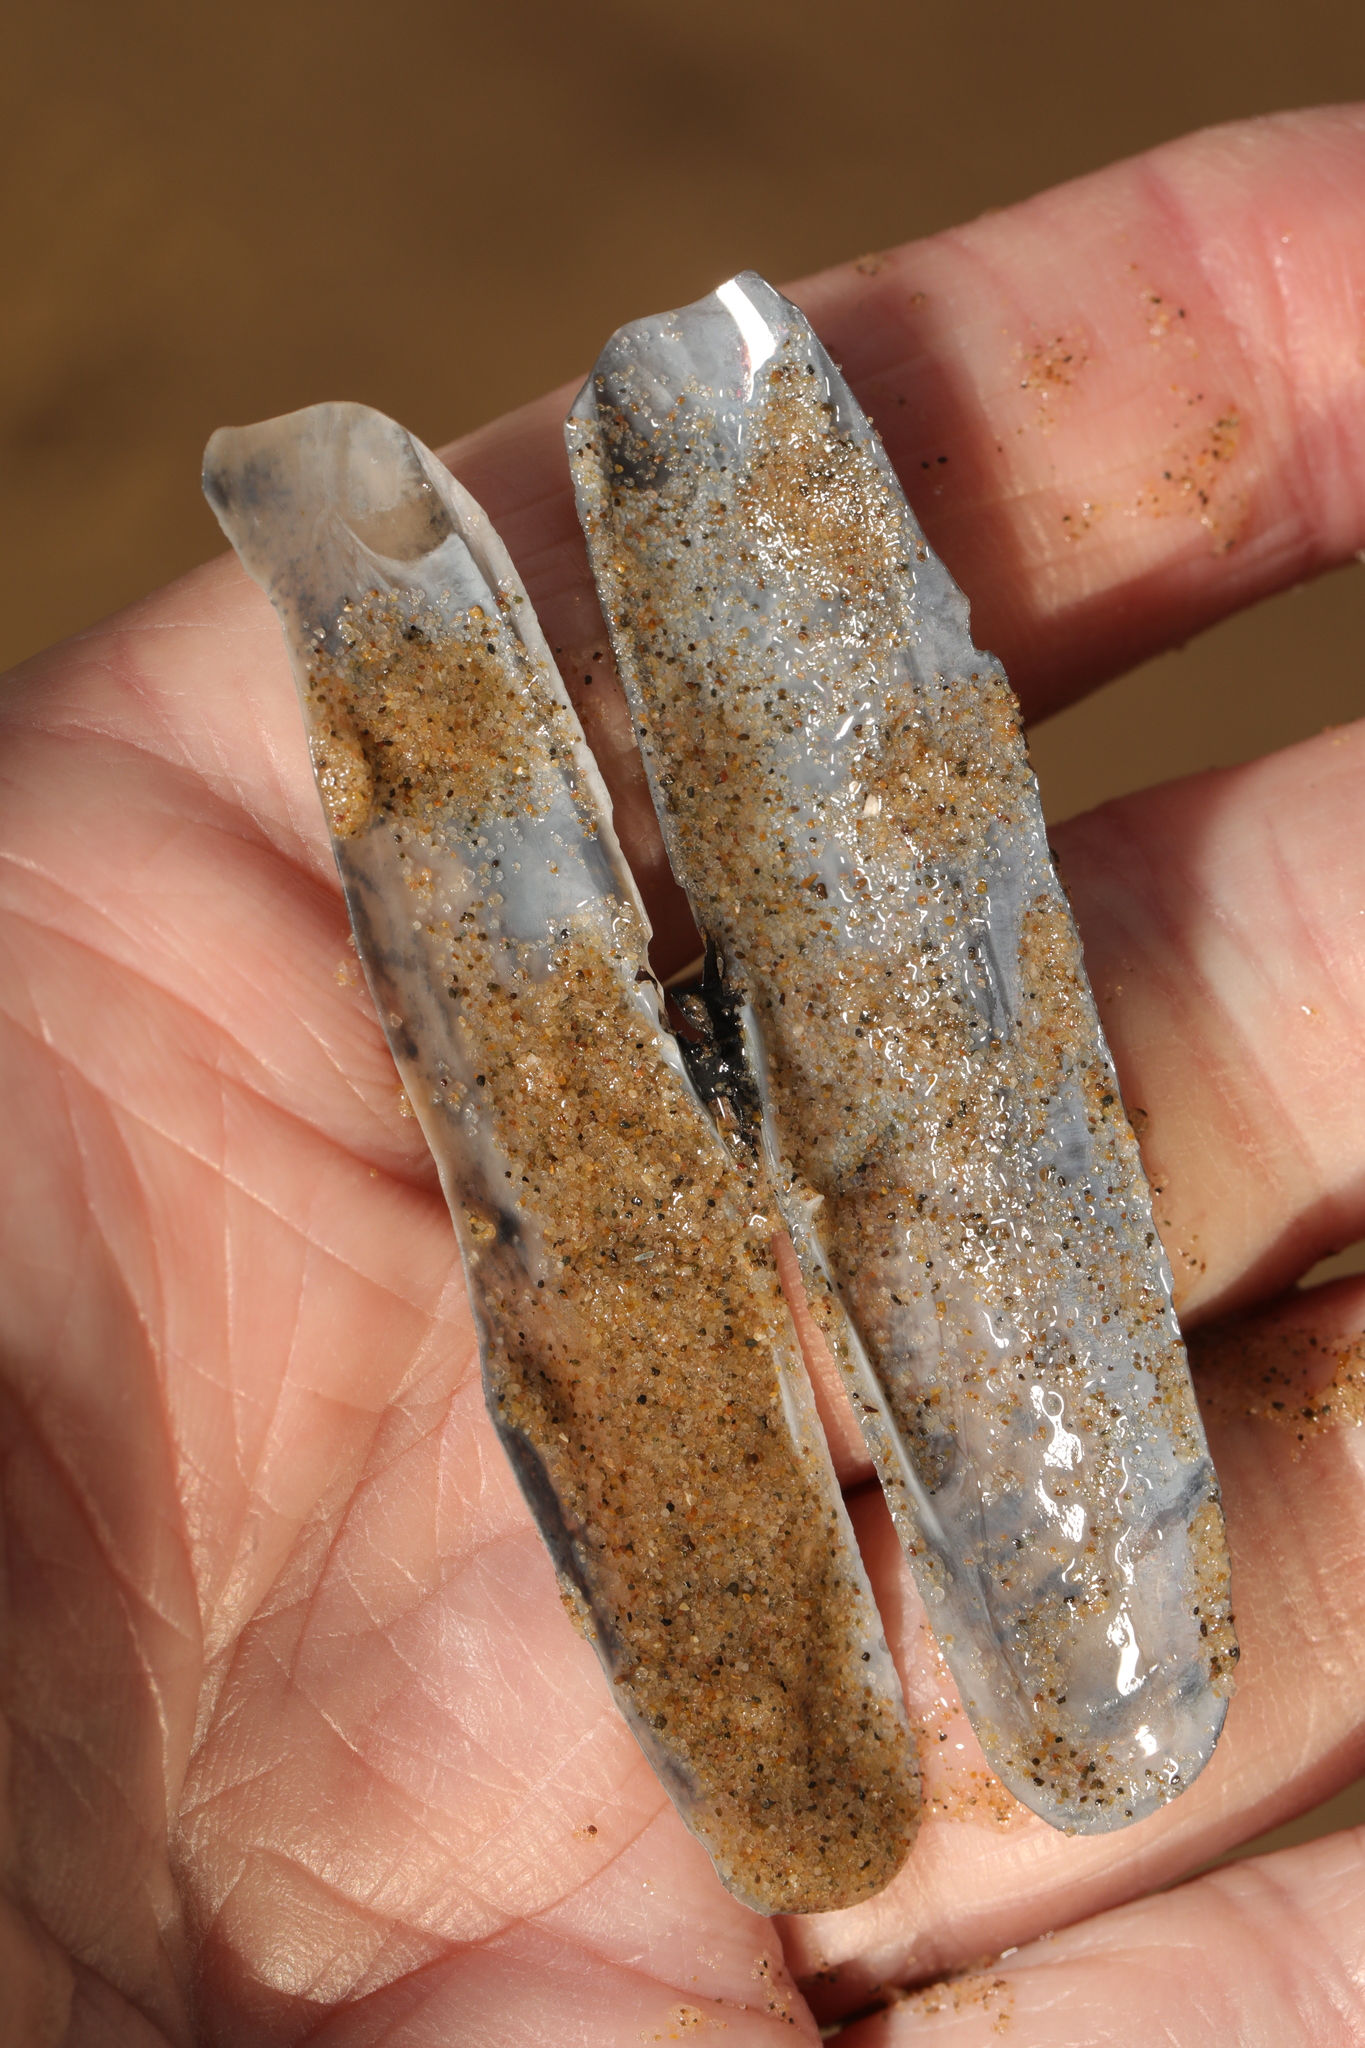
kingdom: Animalia
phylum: Mollusca
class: Bivalvia
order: Adapedonta
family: Pharidae
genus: Pharus
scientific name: Pharus legumen
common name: Bean razor clam
